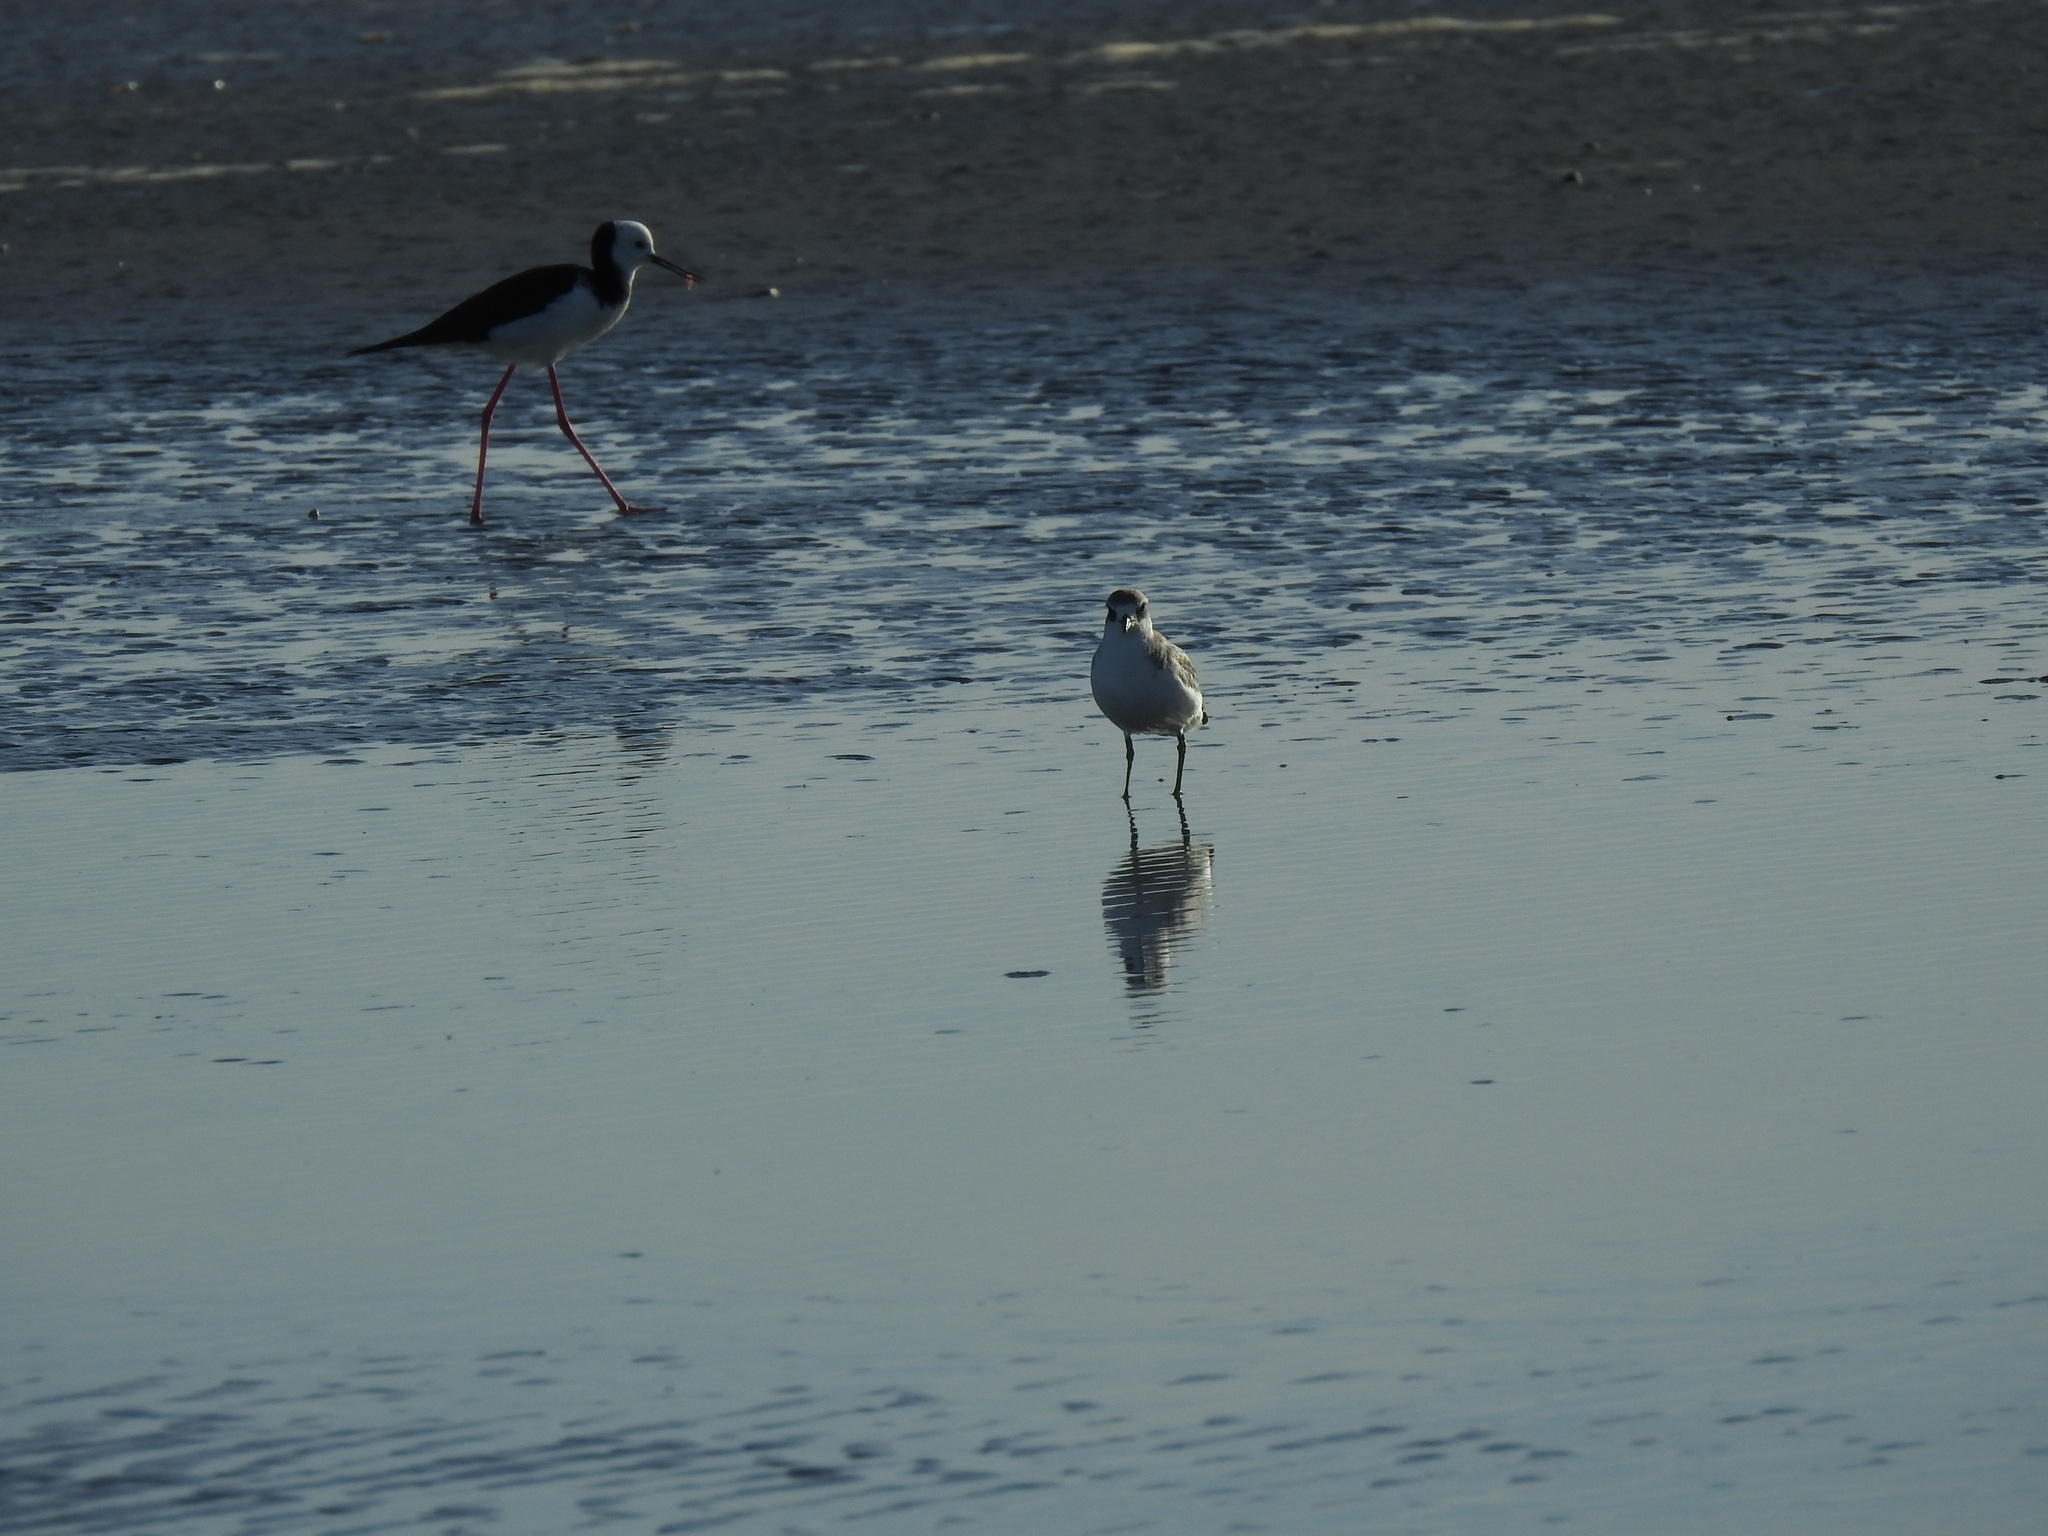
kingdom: Animalia
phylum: Chordata
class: Aves
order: Charadriiformes
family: Charadriidae
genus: Anarhynchus
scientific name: Anarhynchus
